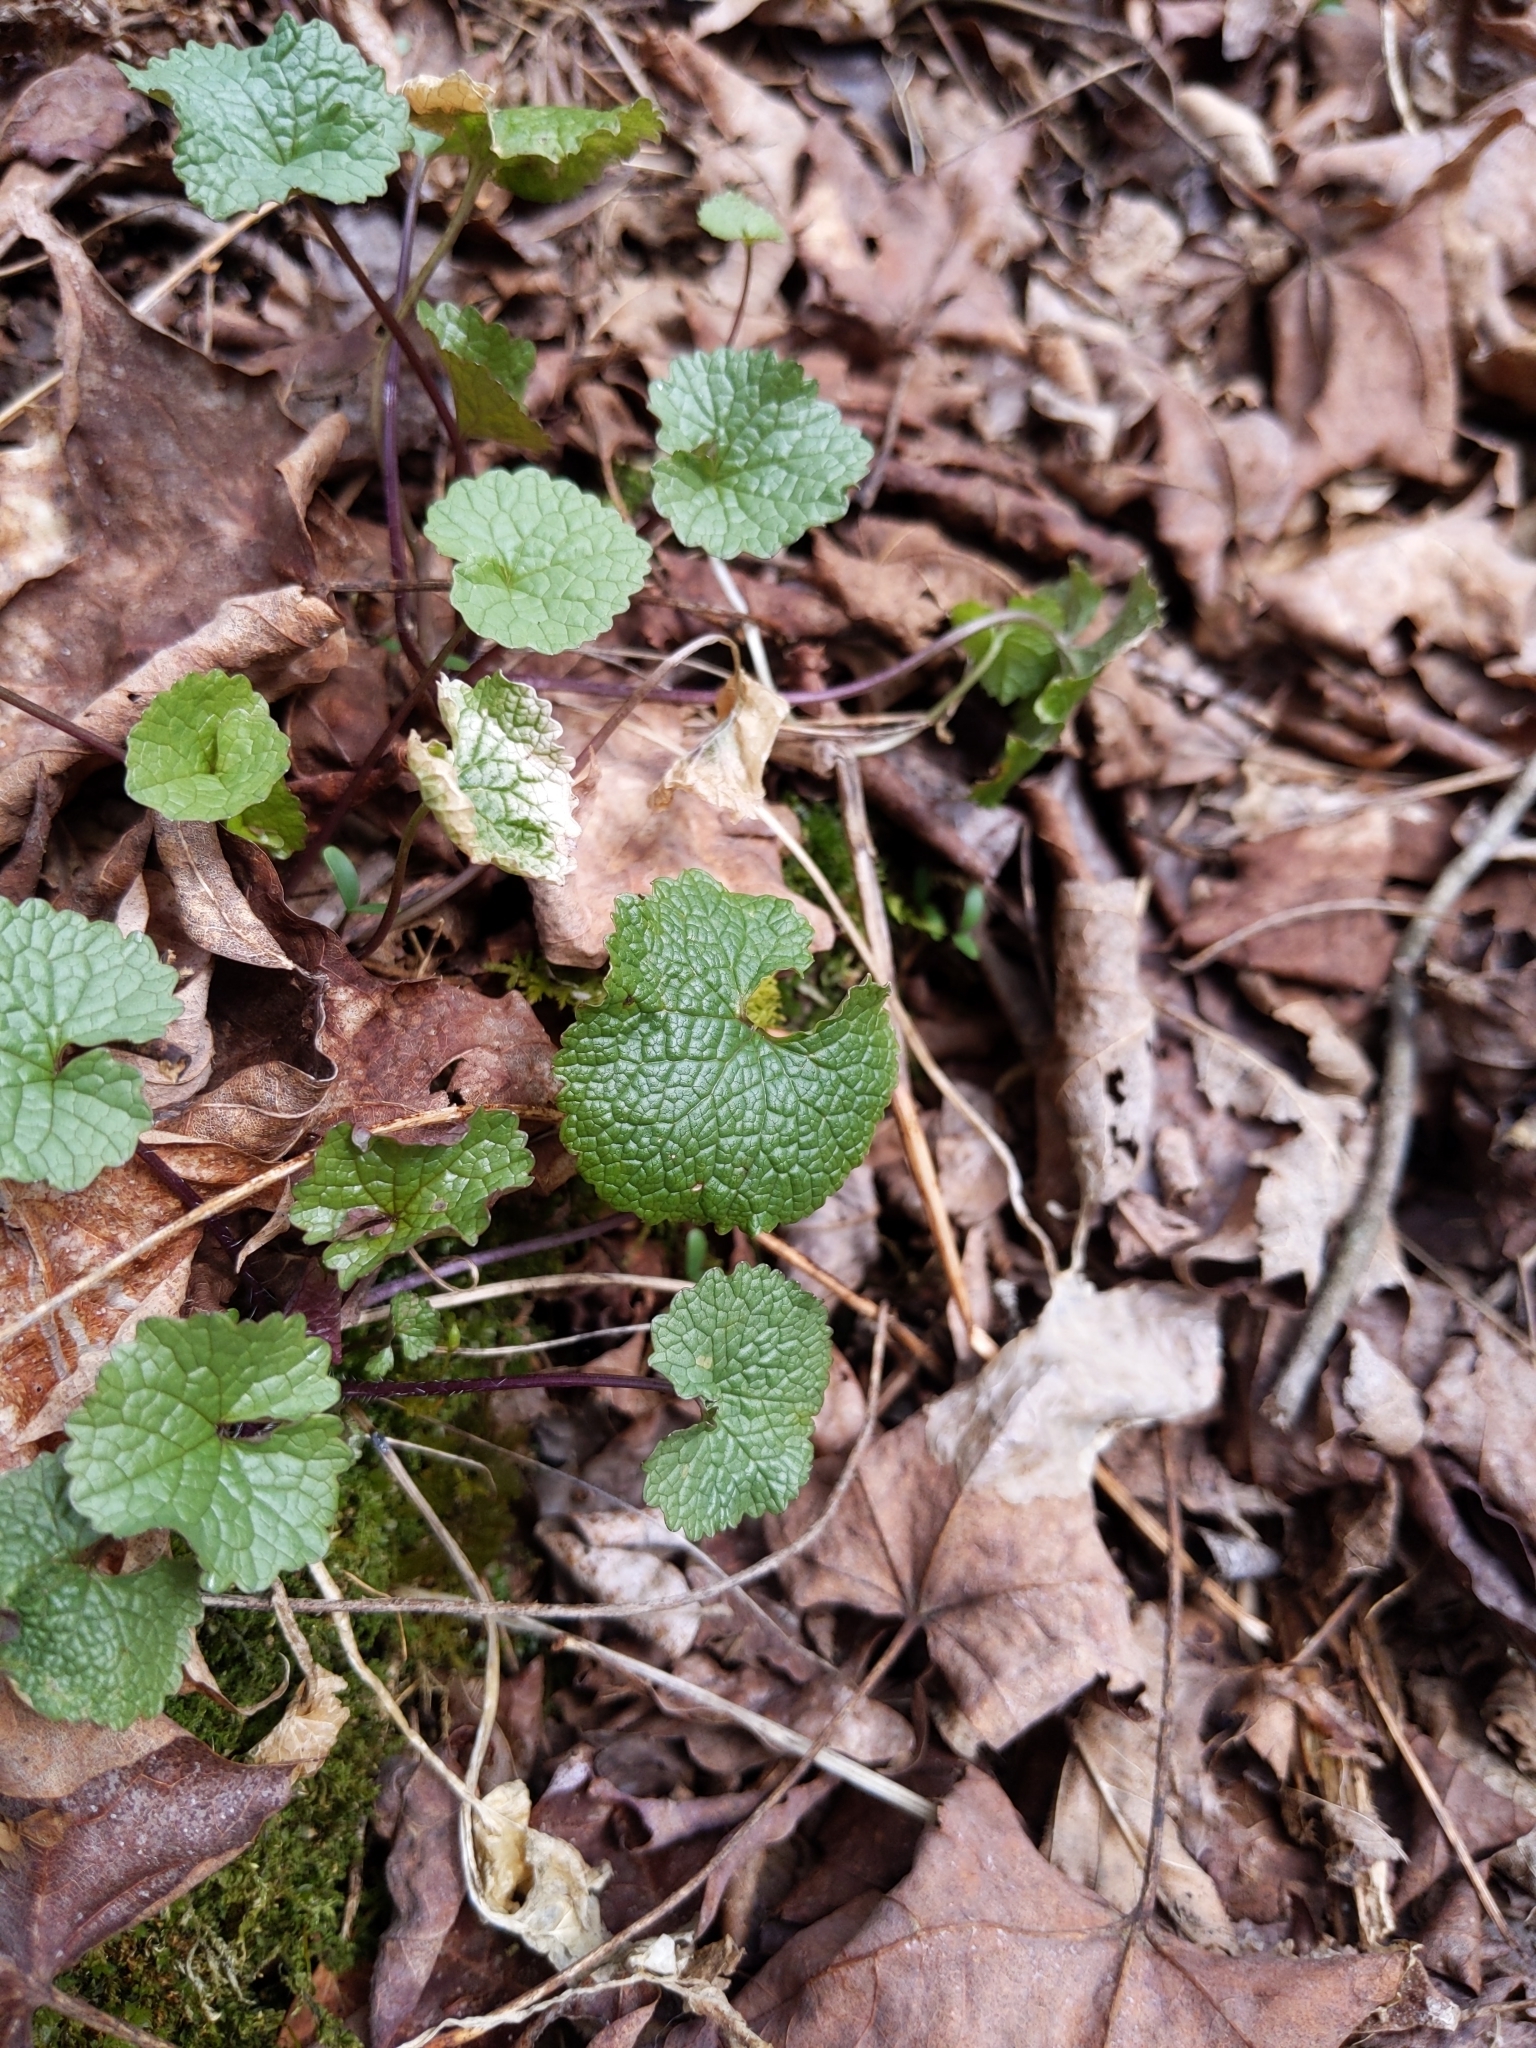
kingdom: Plantae
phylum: Tracheophyta
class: Magnoliopsida
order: Brassicales
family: Brassicaceae
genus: Alliaria
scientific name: Alliaria petiolata
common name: Garlic mustard
